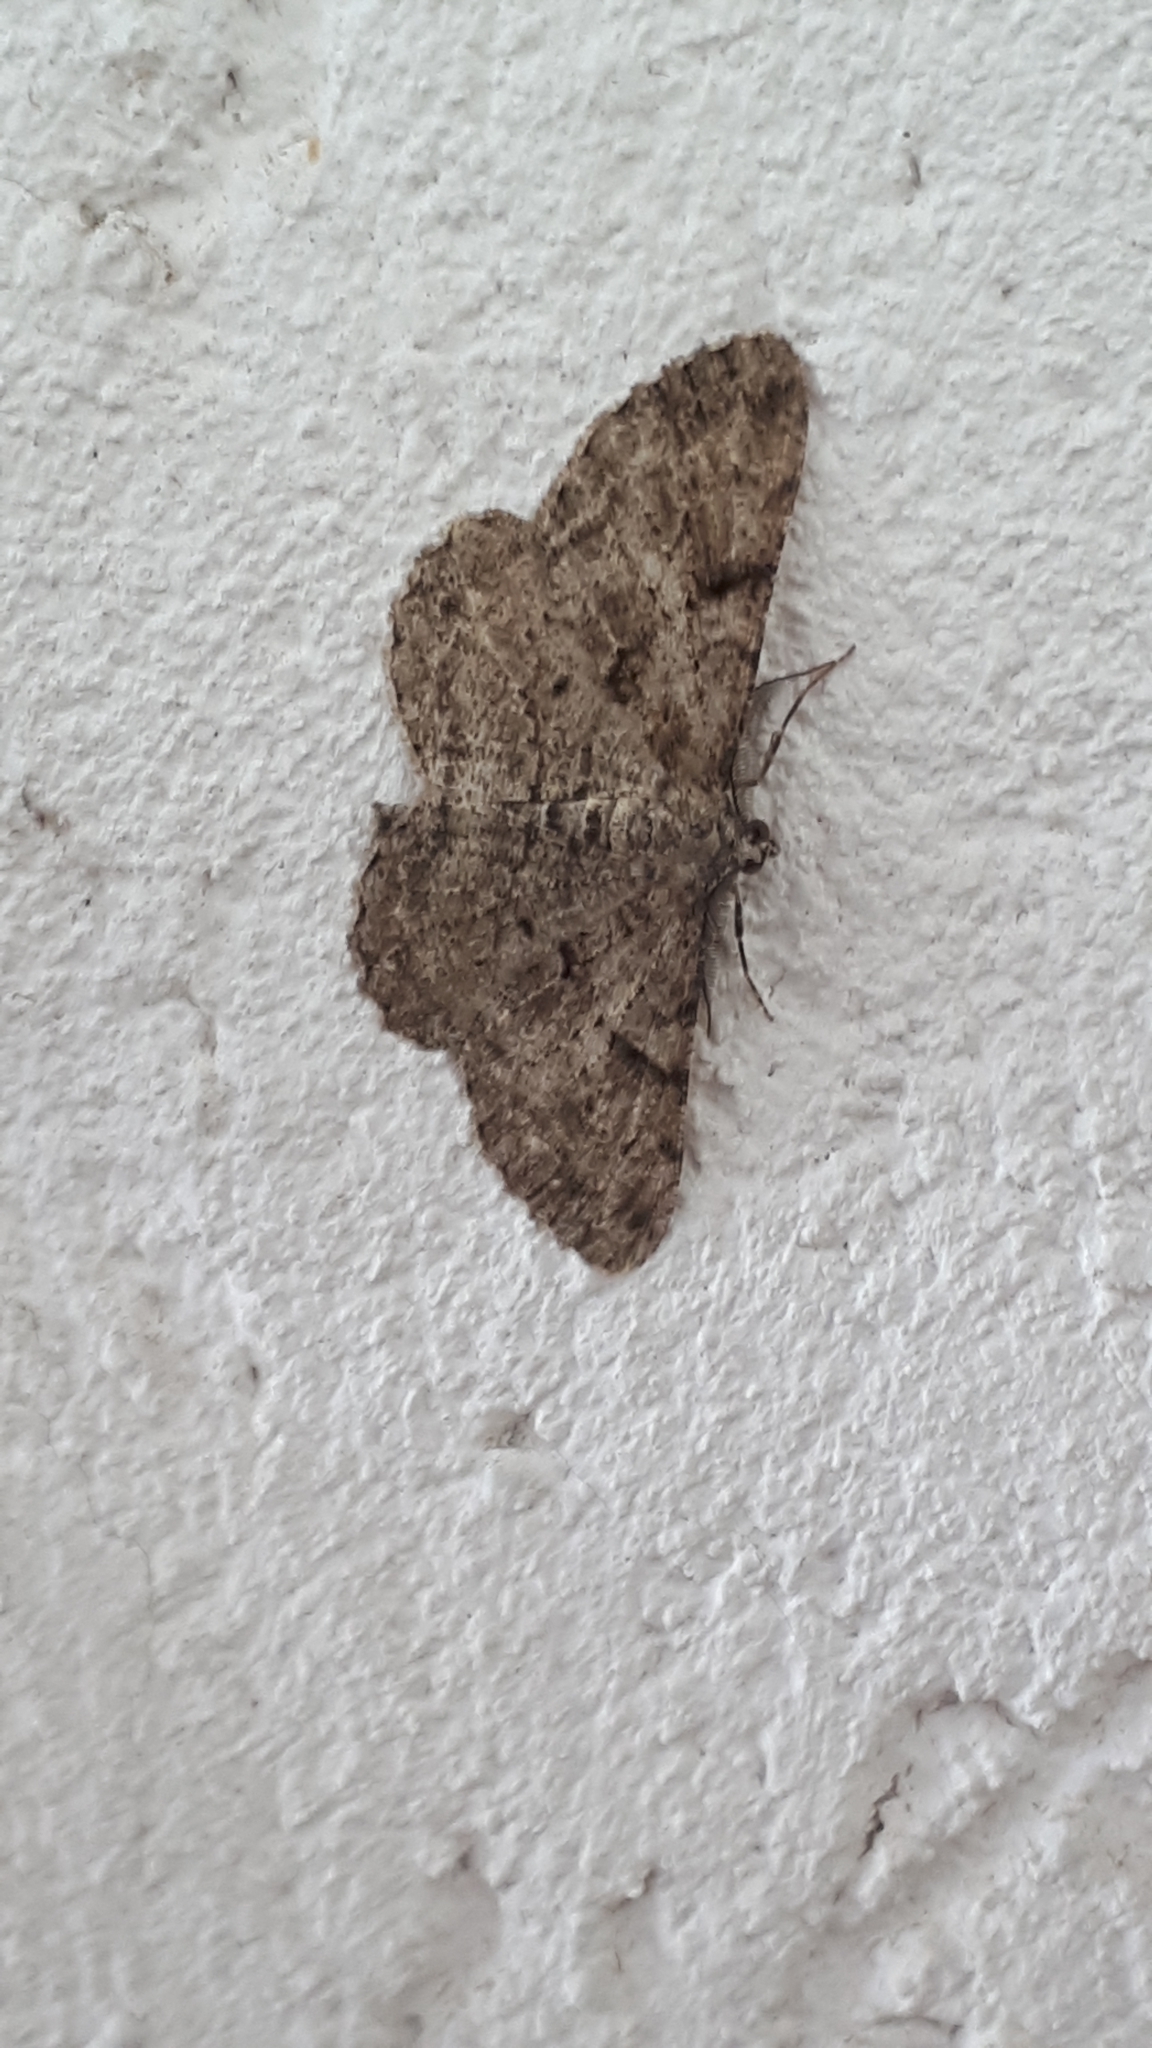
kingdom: Animalia
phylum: Arthropoda
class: Insecta
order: Lepidoptera
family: Geometridae
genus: Peribatodes
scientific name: Peribatodes rhomboidaria
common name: Willow beauty
